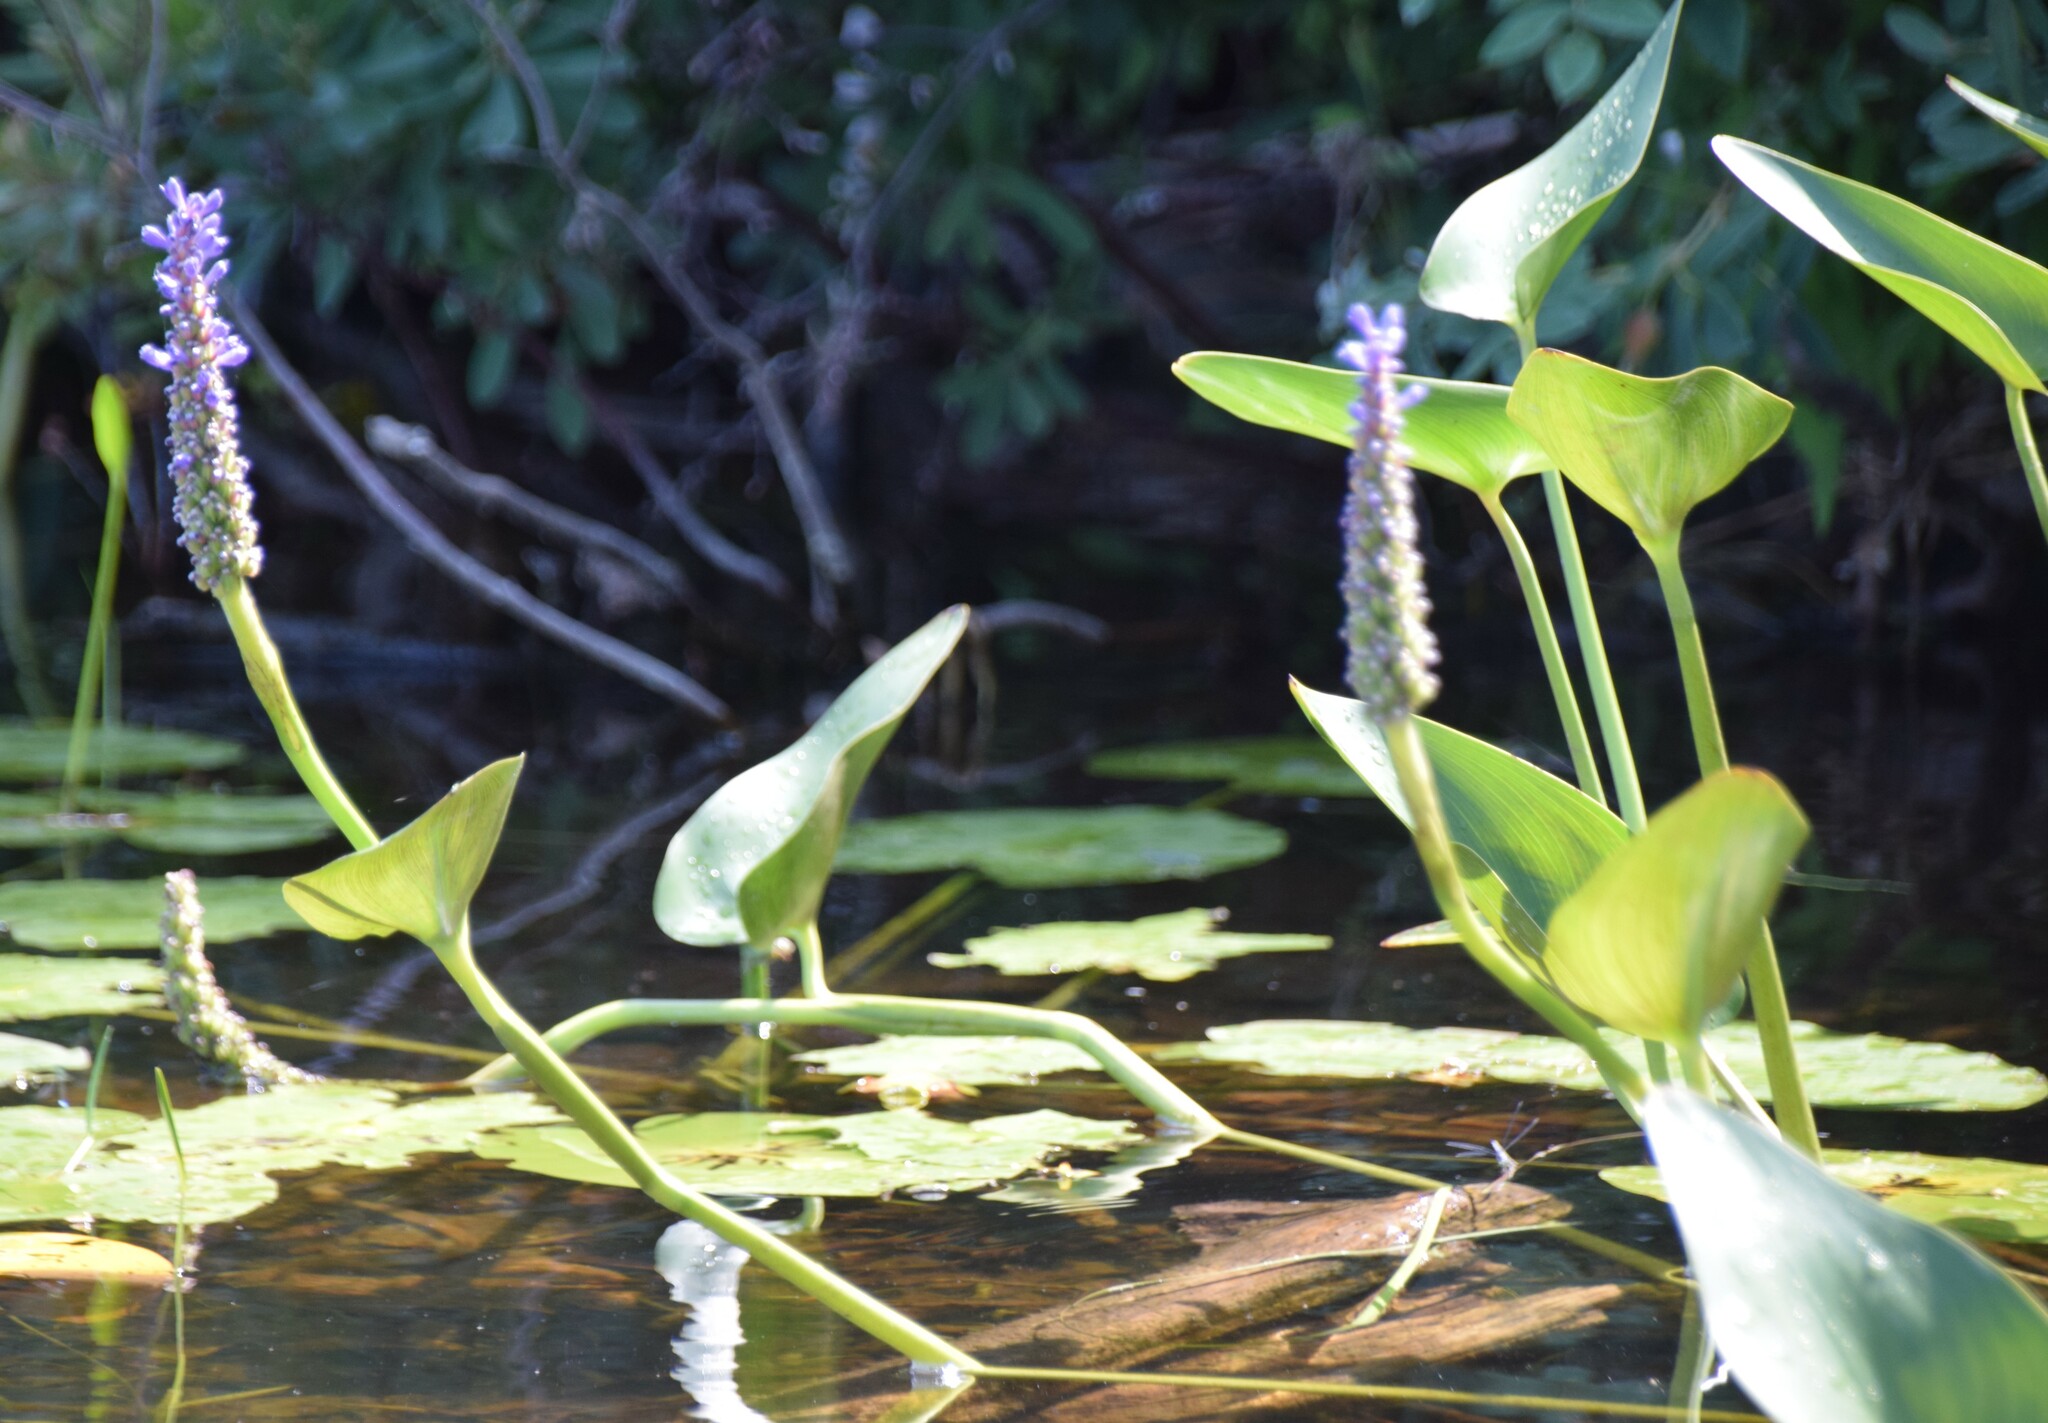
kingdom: Plantae
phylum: Tracheophyta
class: Liliopsida
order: Commelinales
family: Pontederiaceae
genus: Pontederia
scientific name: Pontederia cordata
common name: Pickerelweed
